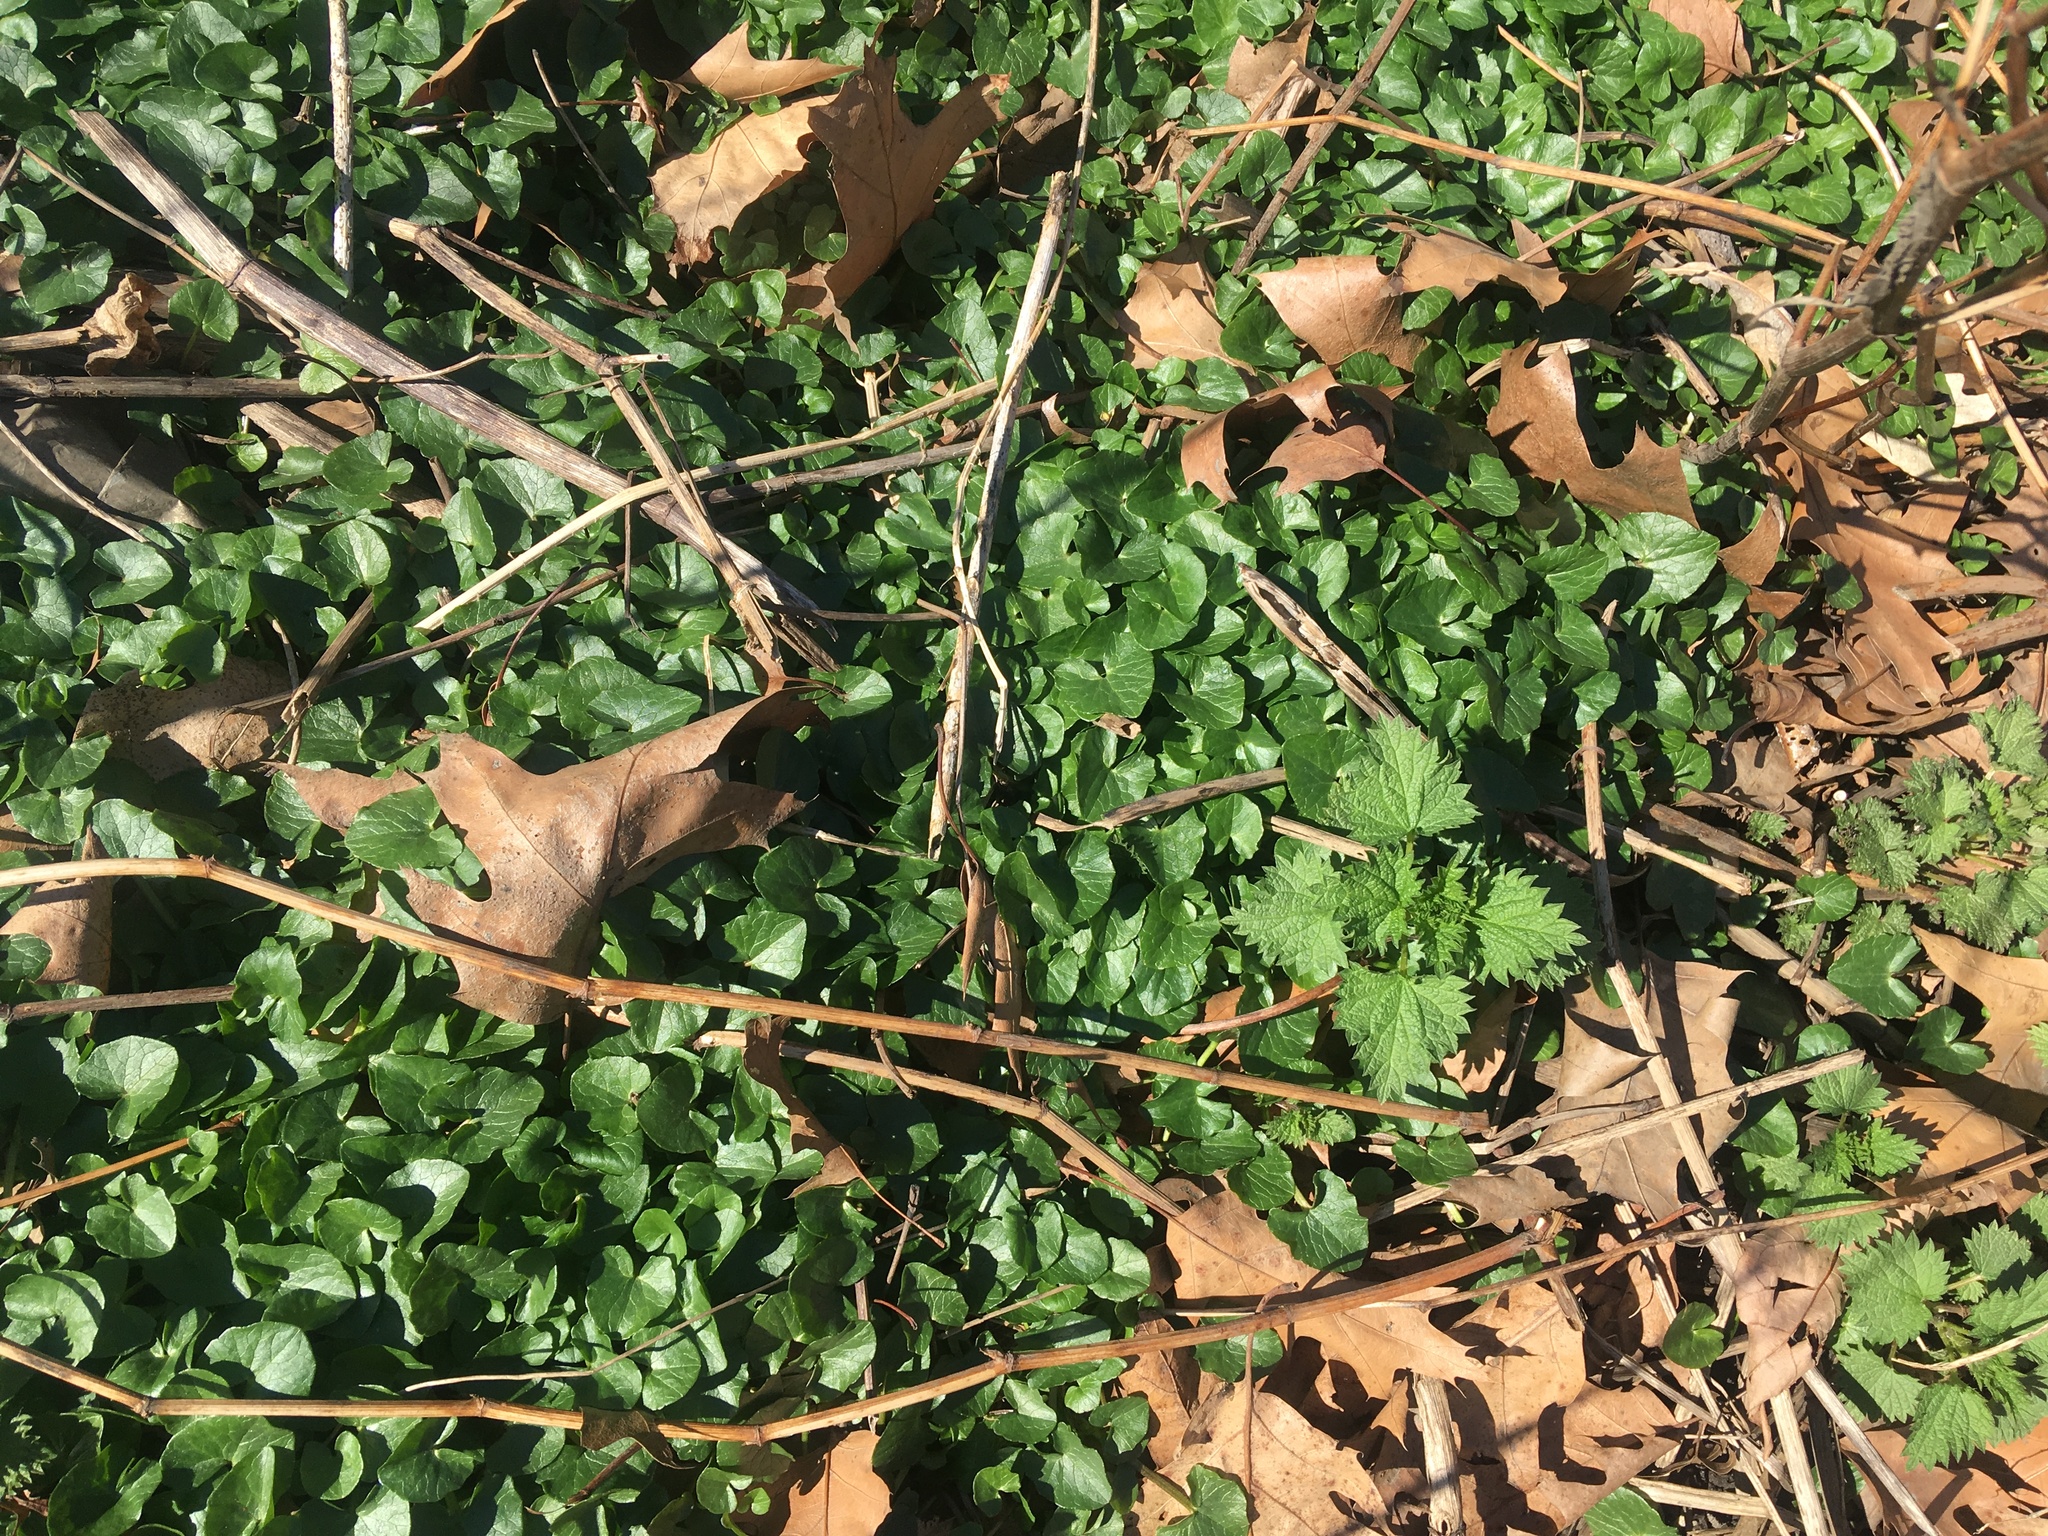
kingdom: Plantae
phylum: Tracheophyta
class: Magnoliopsida
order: Ranunculales
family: Ranunculaceae
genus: Ficaria
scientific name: Ficaria verna
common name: Lesser celandine
